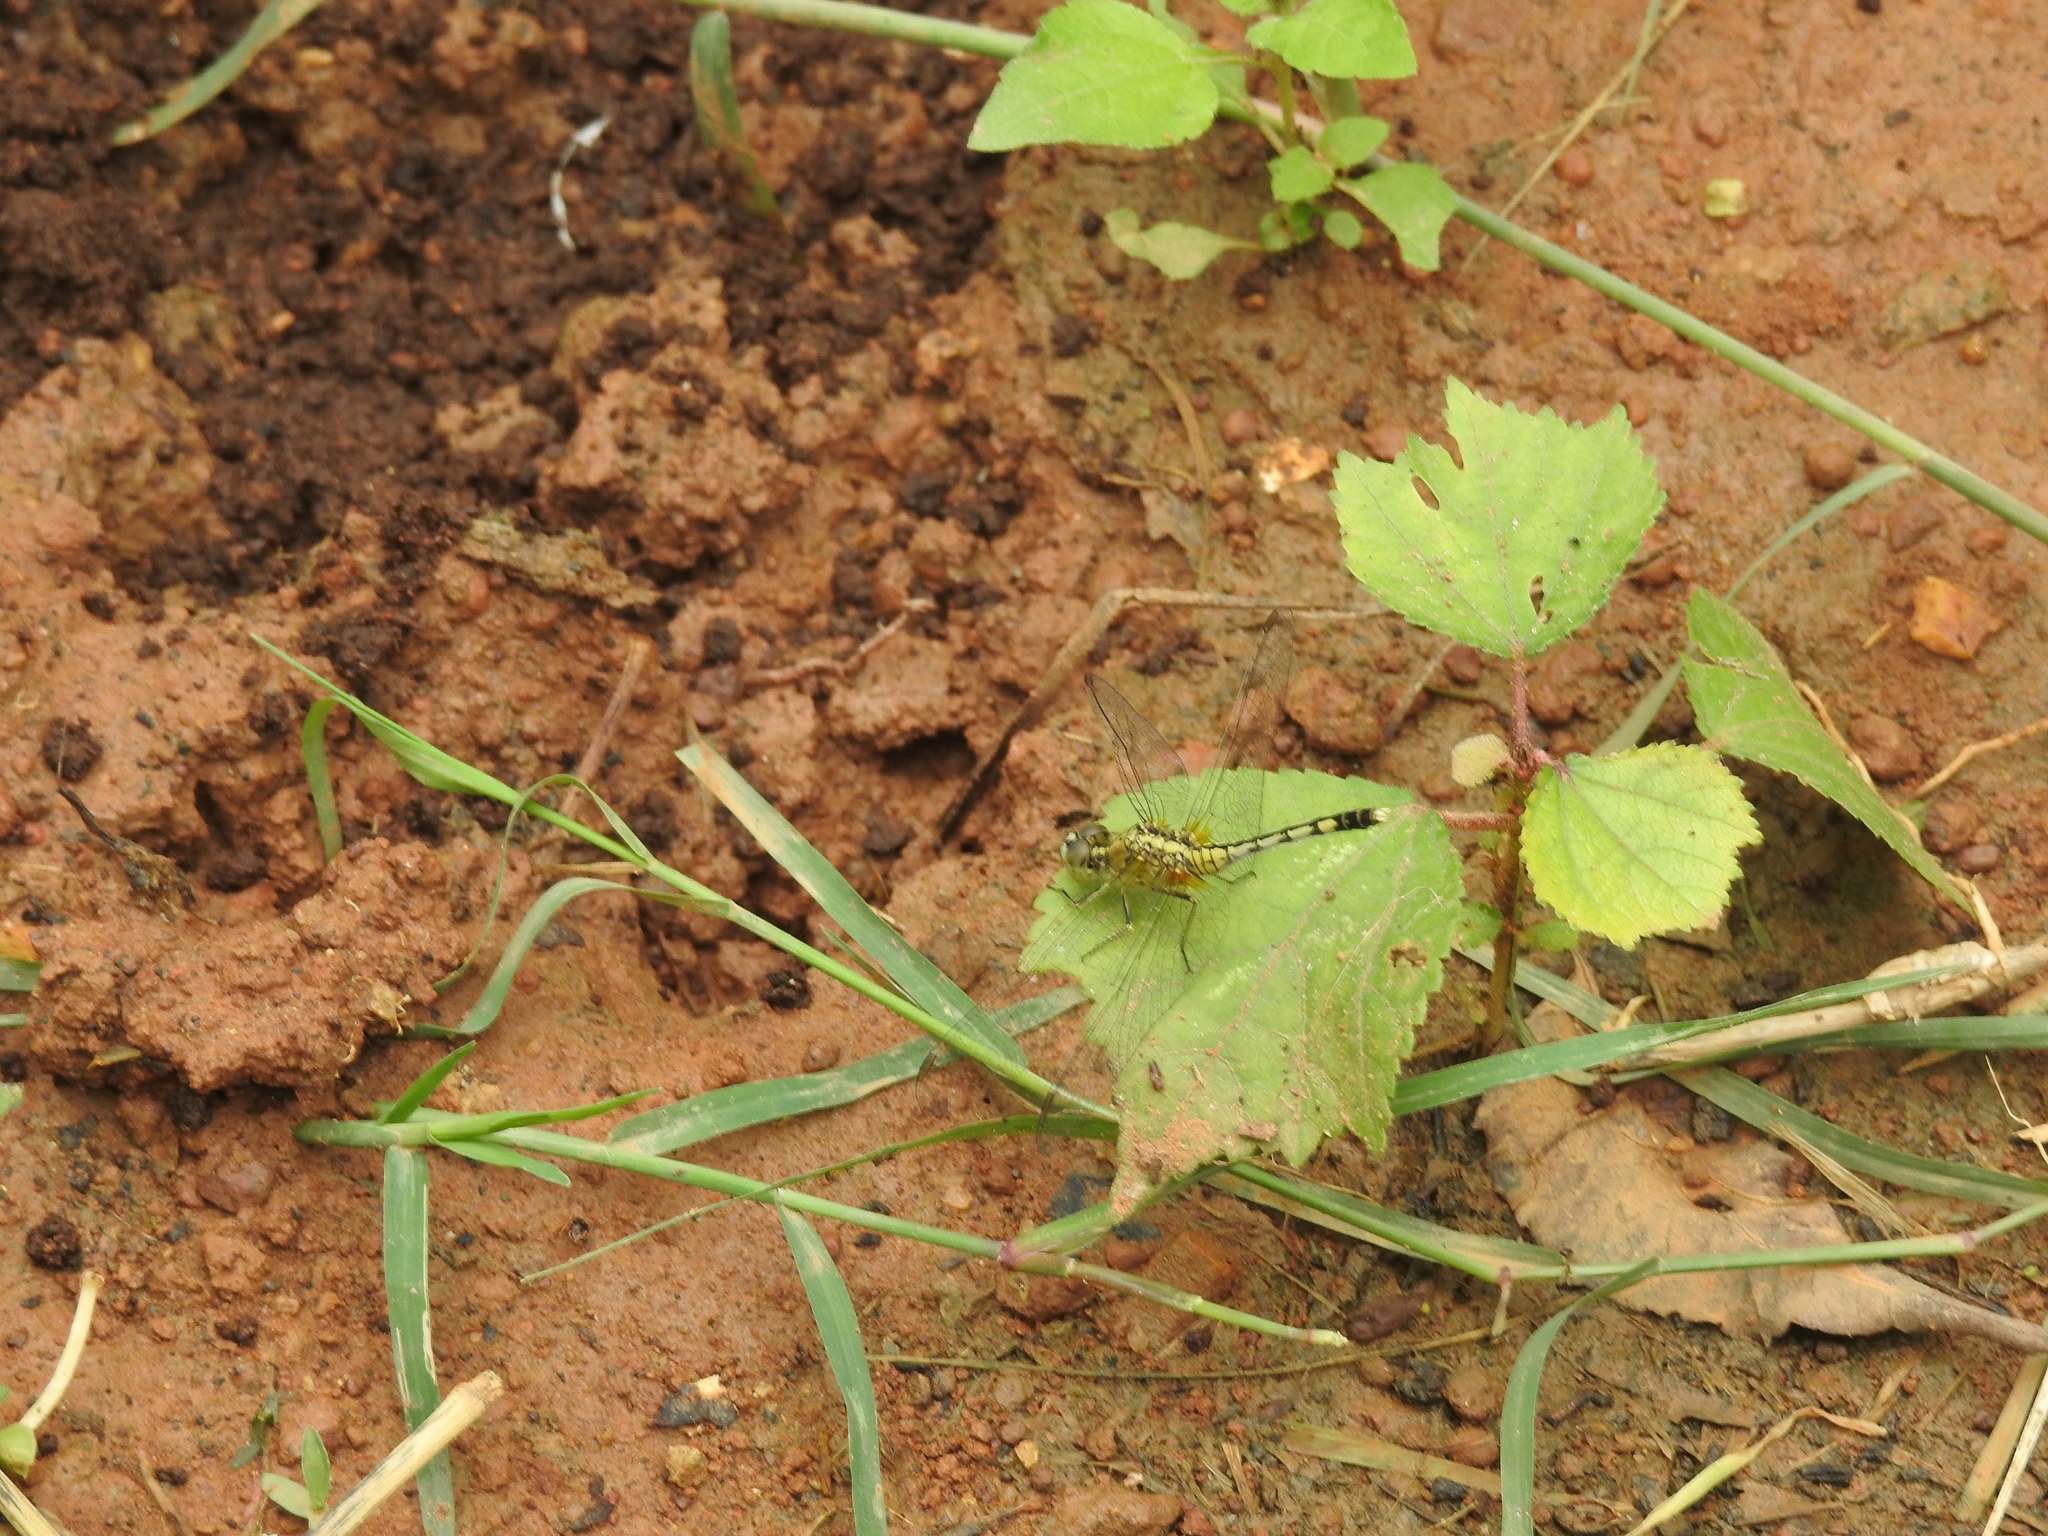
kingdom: Animalia
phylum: Arthropoda
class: Insecta
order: Odonata
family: Libellulidae
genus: Diplacodes
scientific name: Diplacodes trivialis
